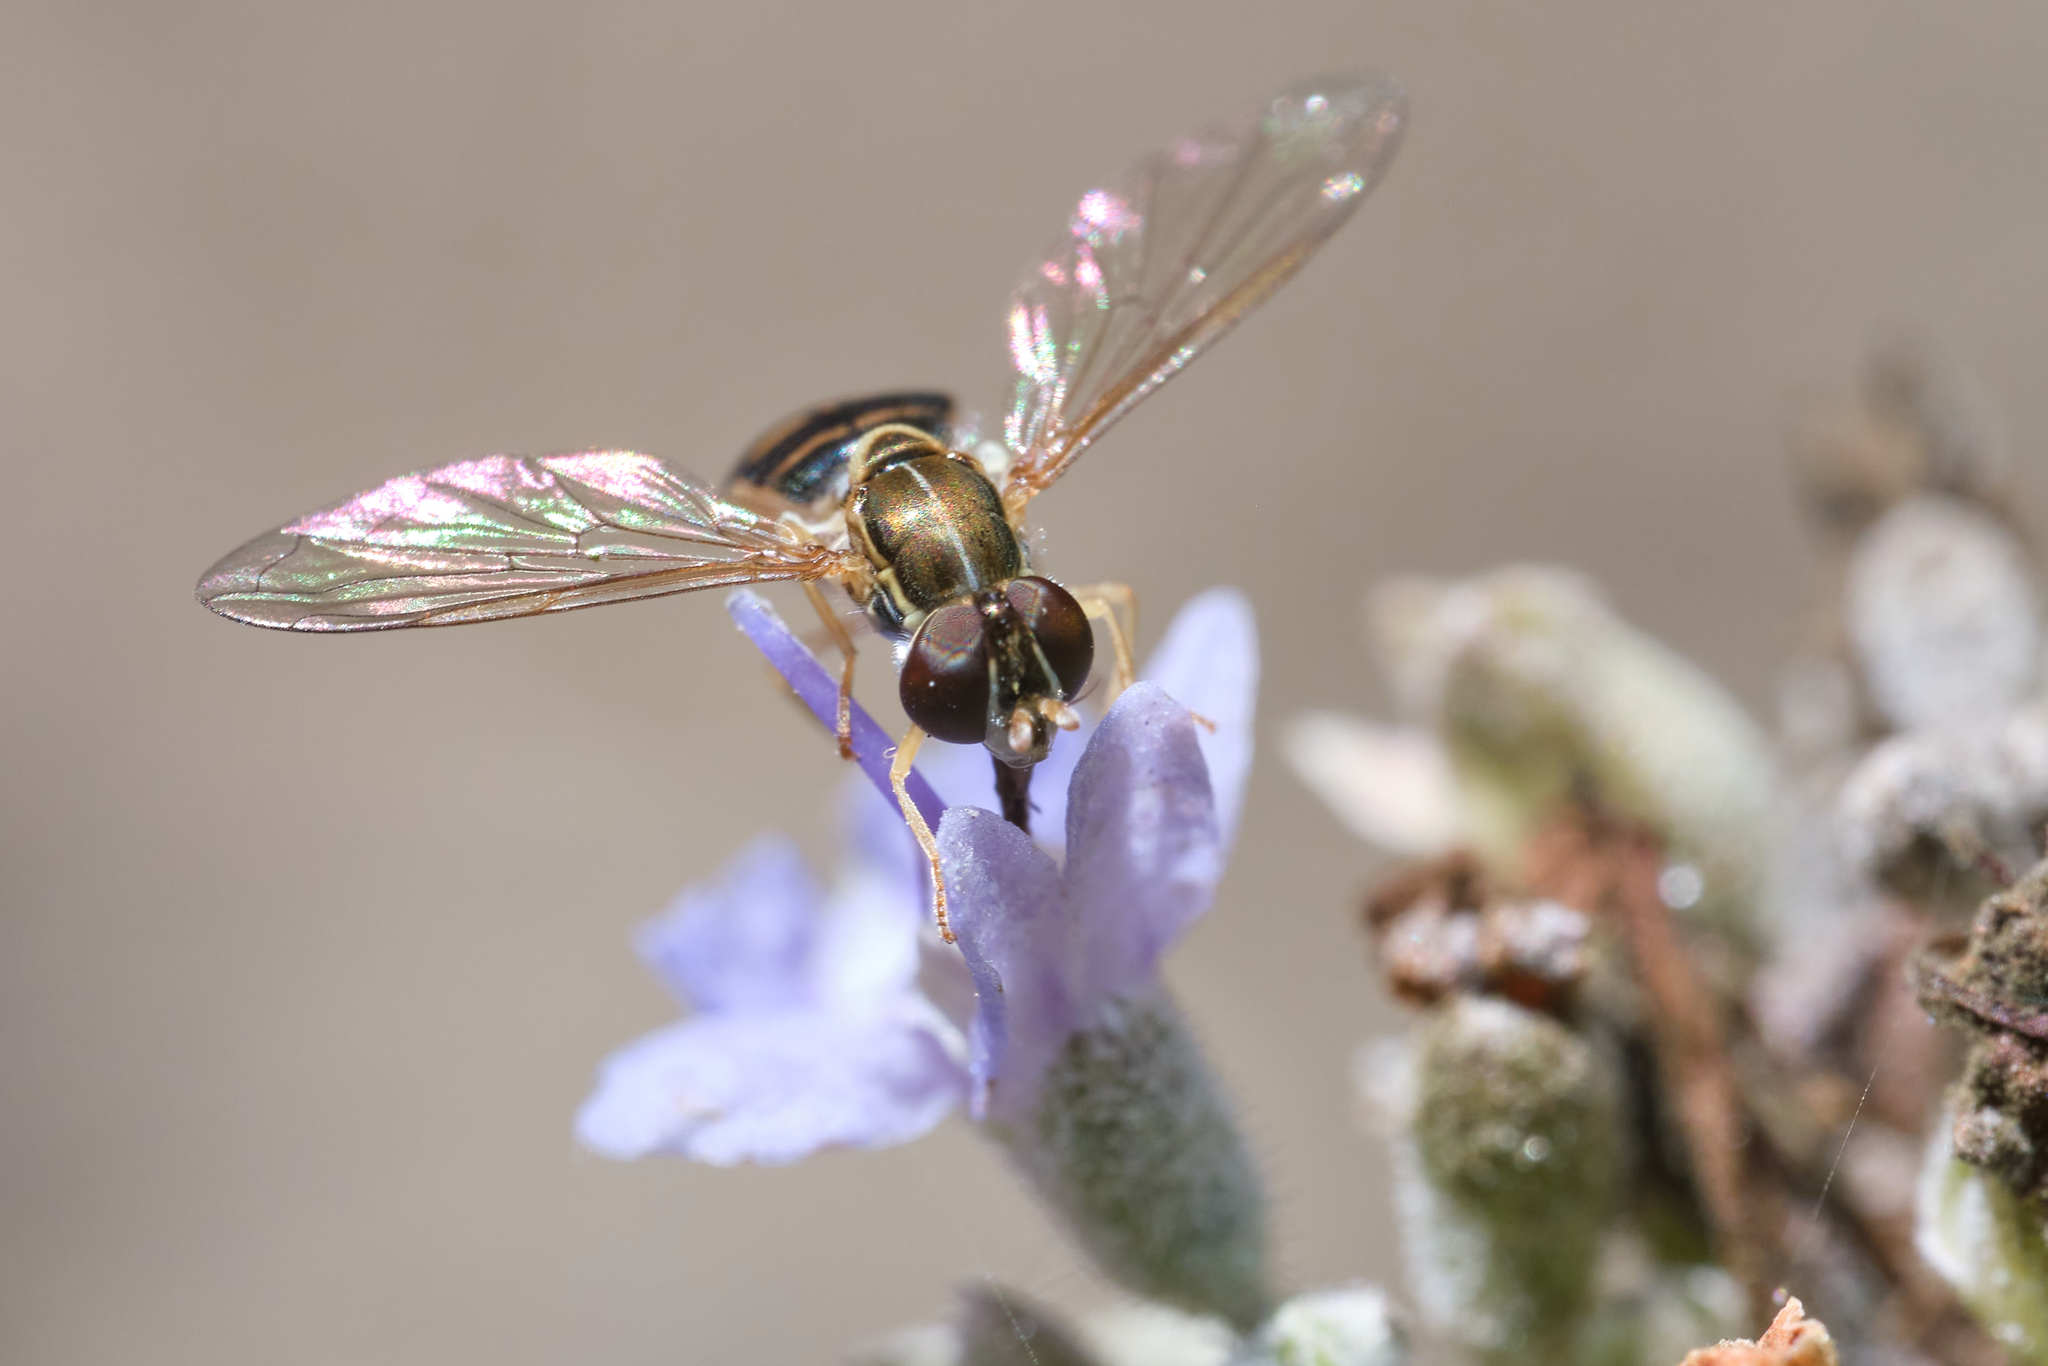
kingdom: Animalia
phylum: Arthropoda
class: Insecta
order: Diptera
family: Syrphidae
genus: Toxomerus
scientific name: Toxomerus marginatus
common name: Syrphid fly
